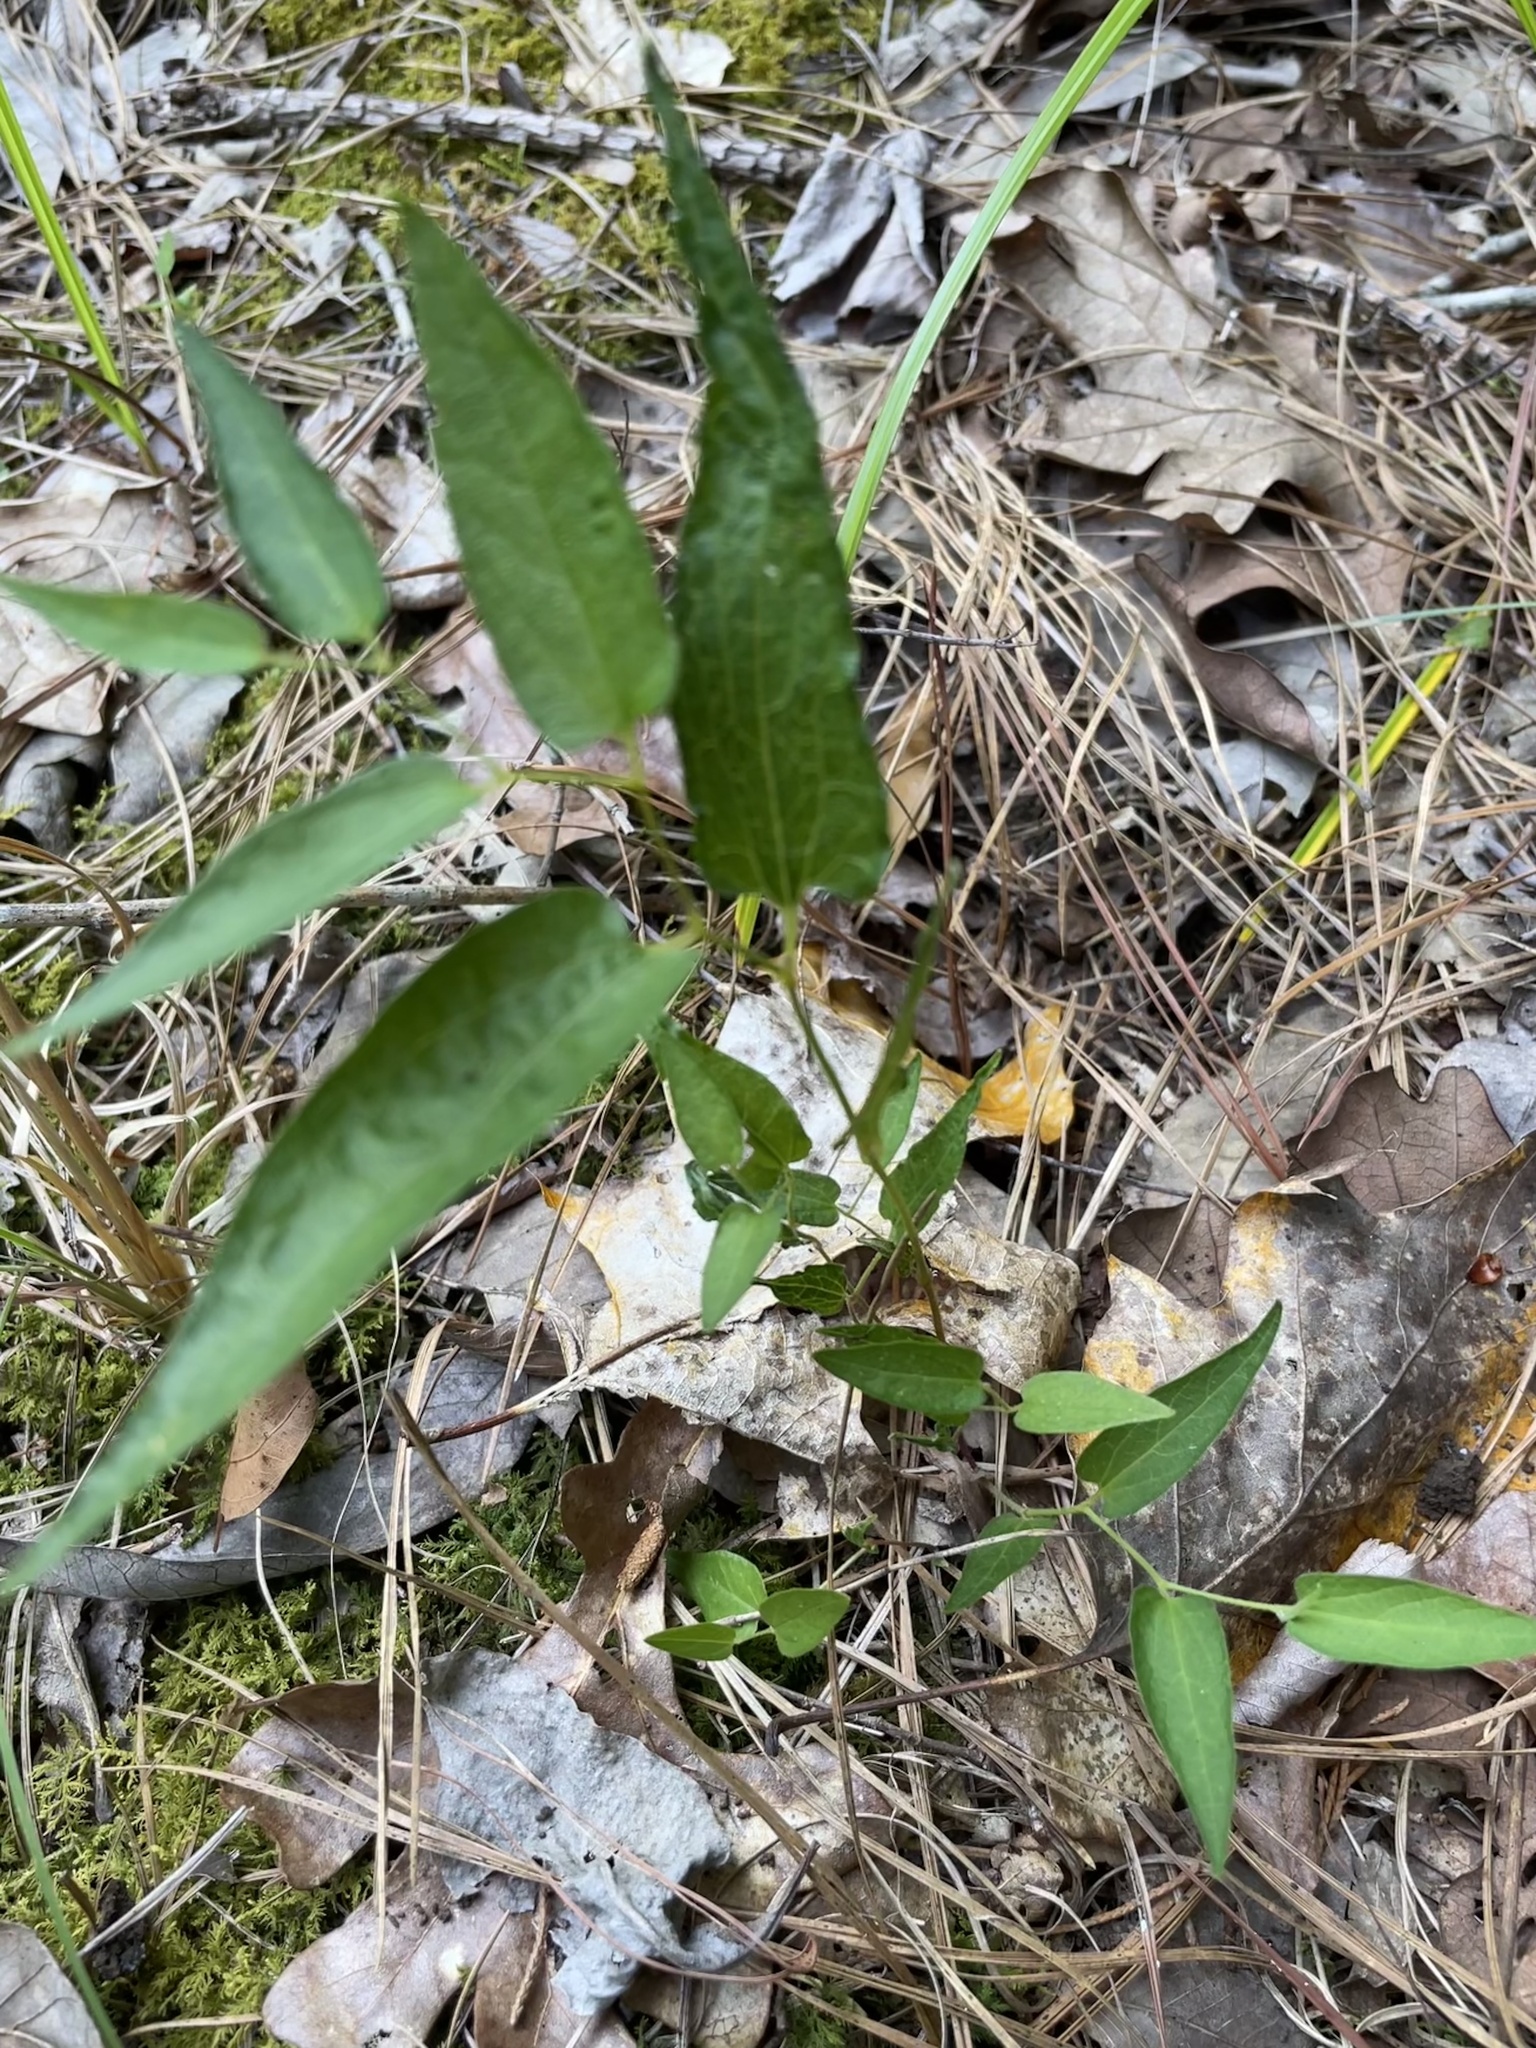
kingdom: Plantae
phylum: Tracheophyta
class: Magnoliopsida
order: Piperales
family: Aristolochiaceae
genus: Endodeca
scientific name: Endodeca serpentaria
